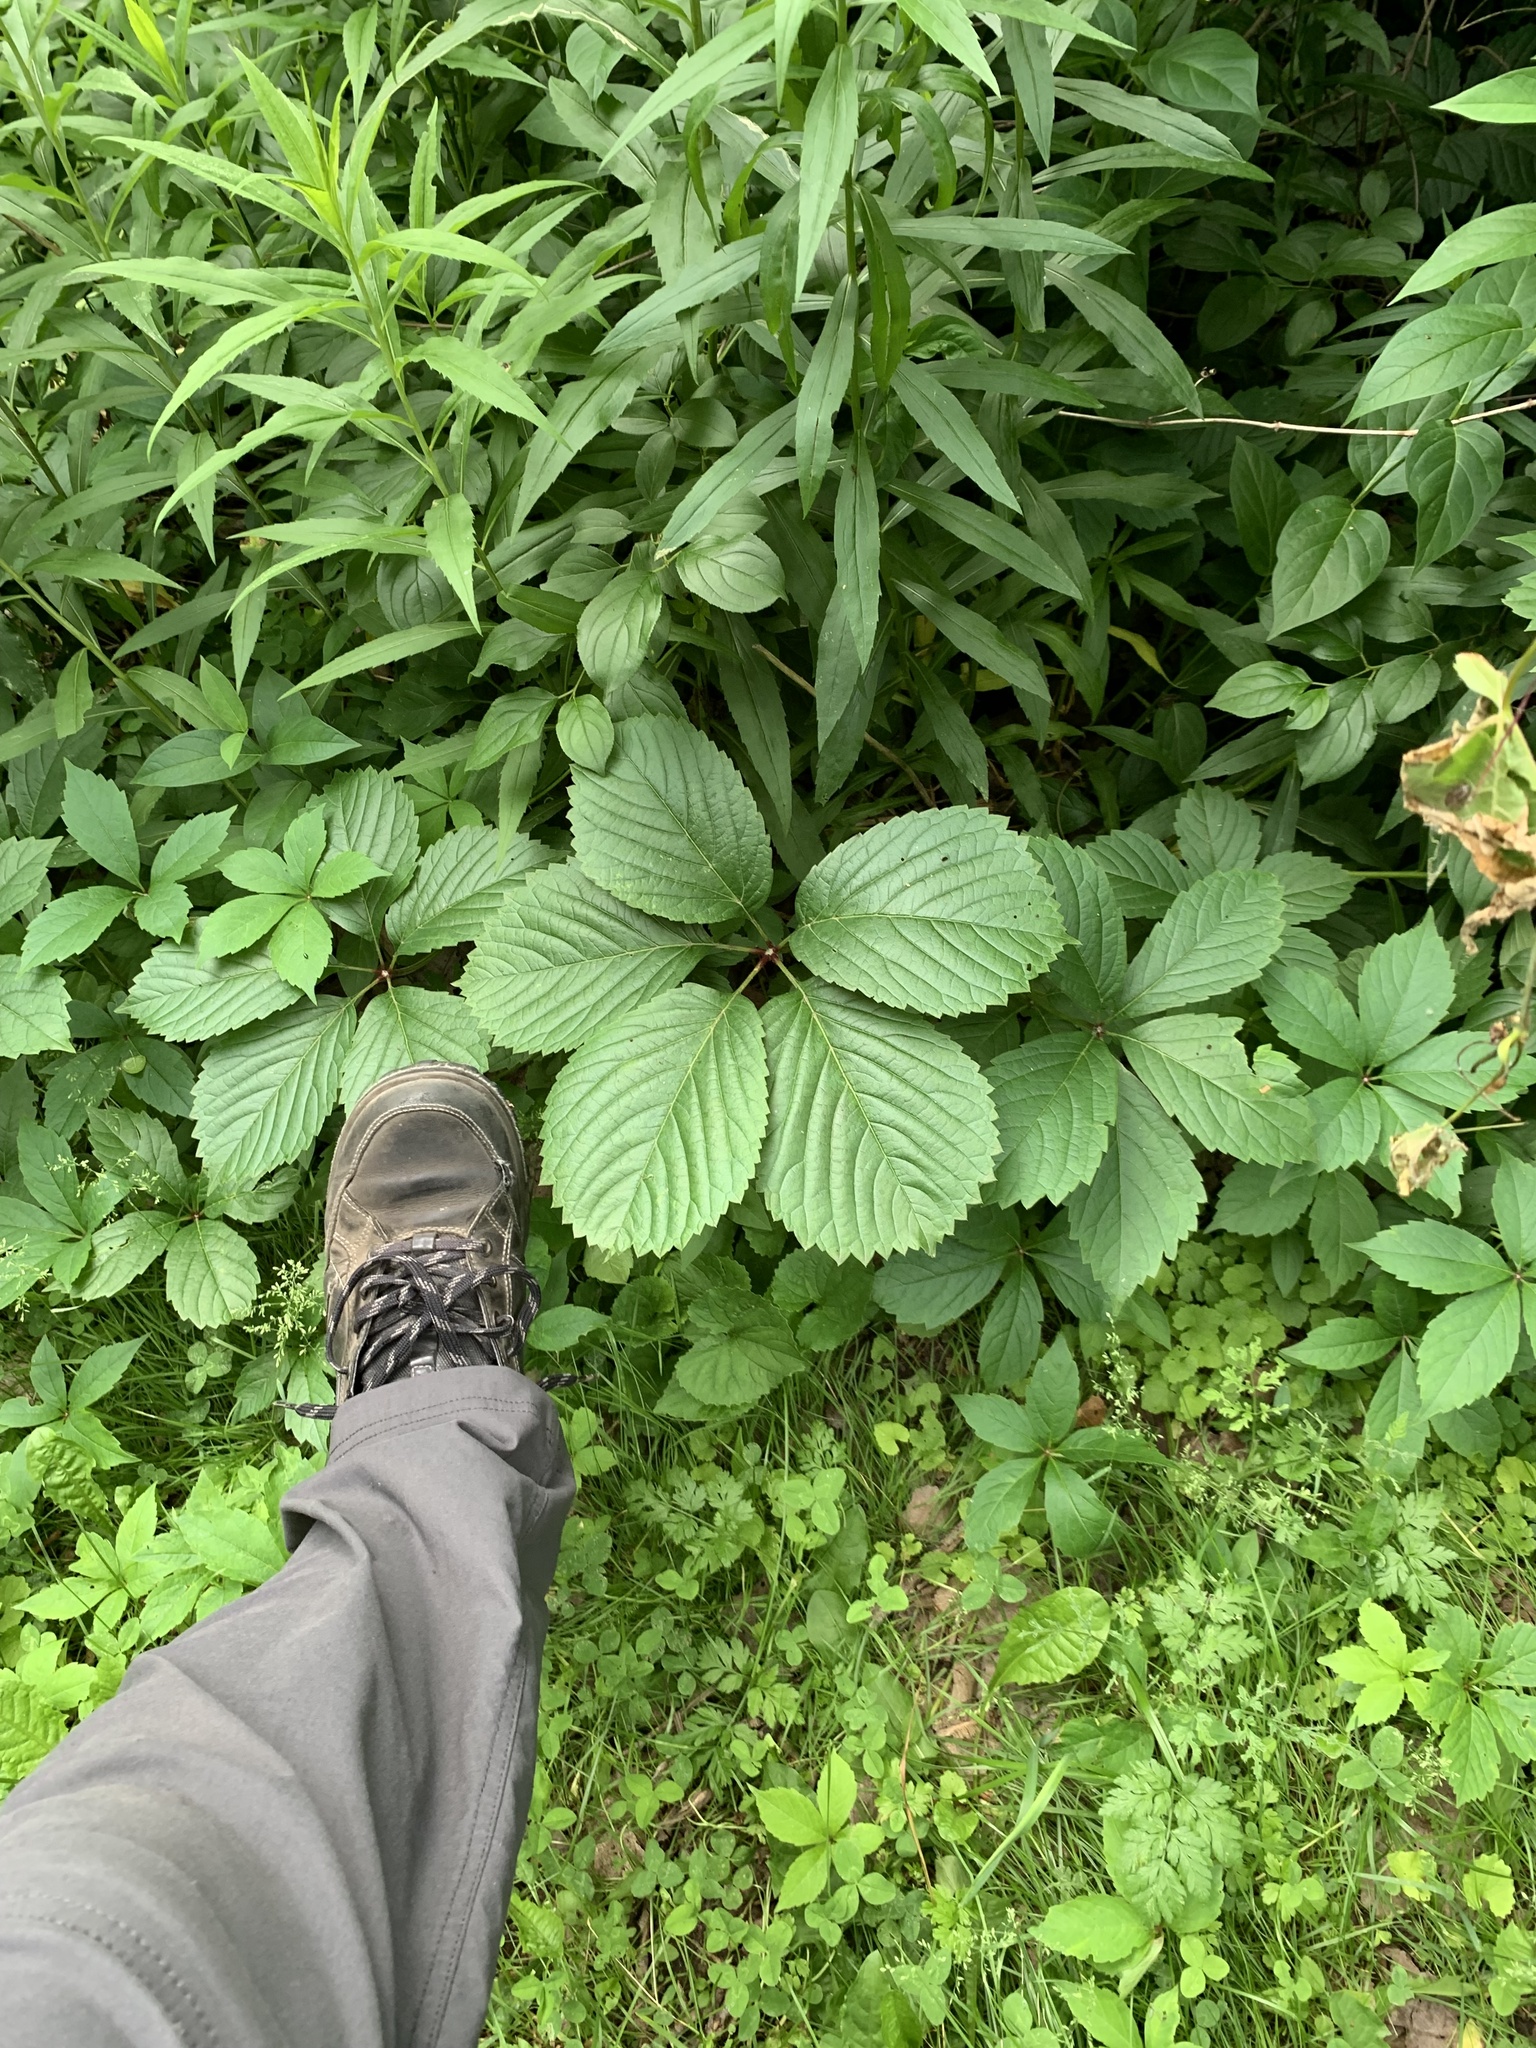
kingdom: Plantae
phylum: Tracheophyta
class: Magnoliopsida
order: Vitales
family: Vitaceae
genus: Parthenocissus
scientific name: Parthenocissus inserta
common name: False virginia-creeper
